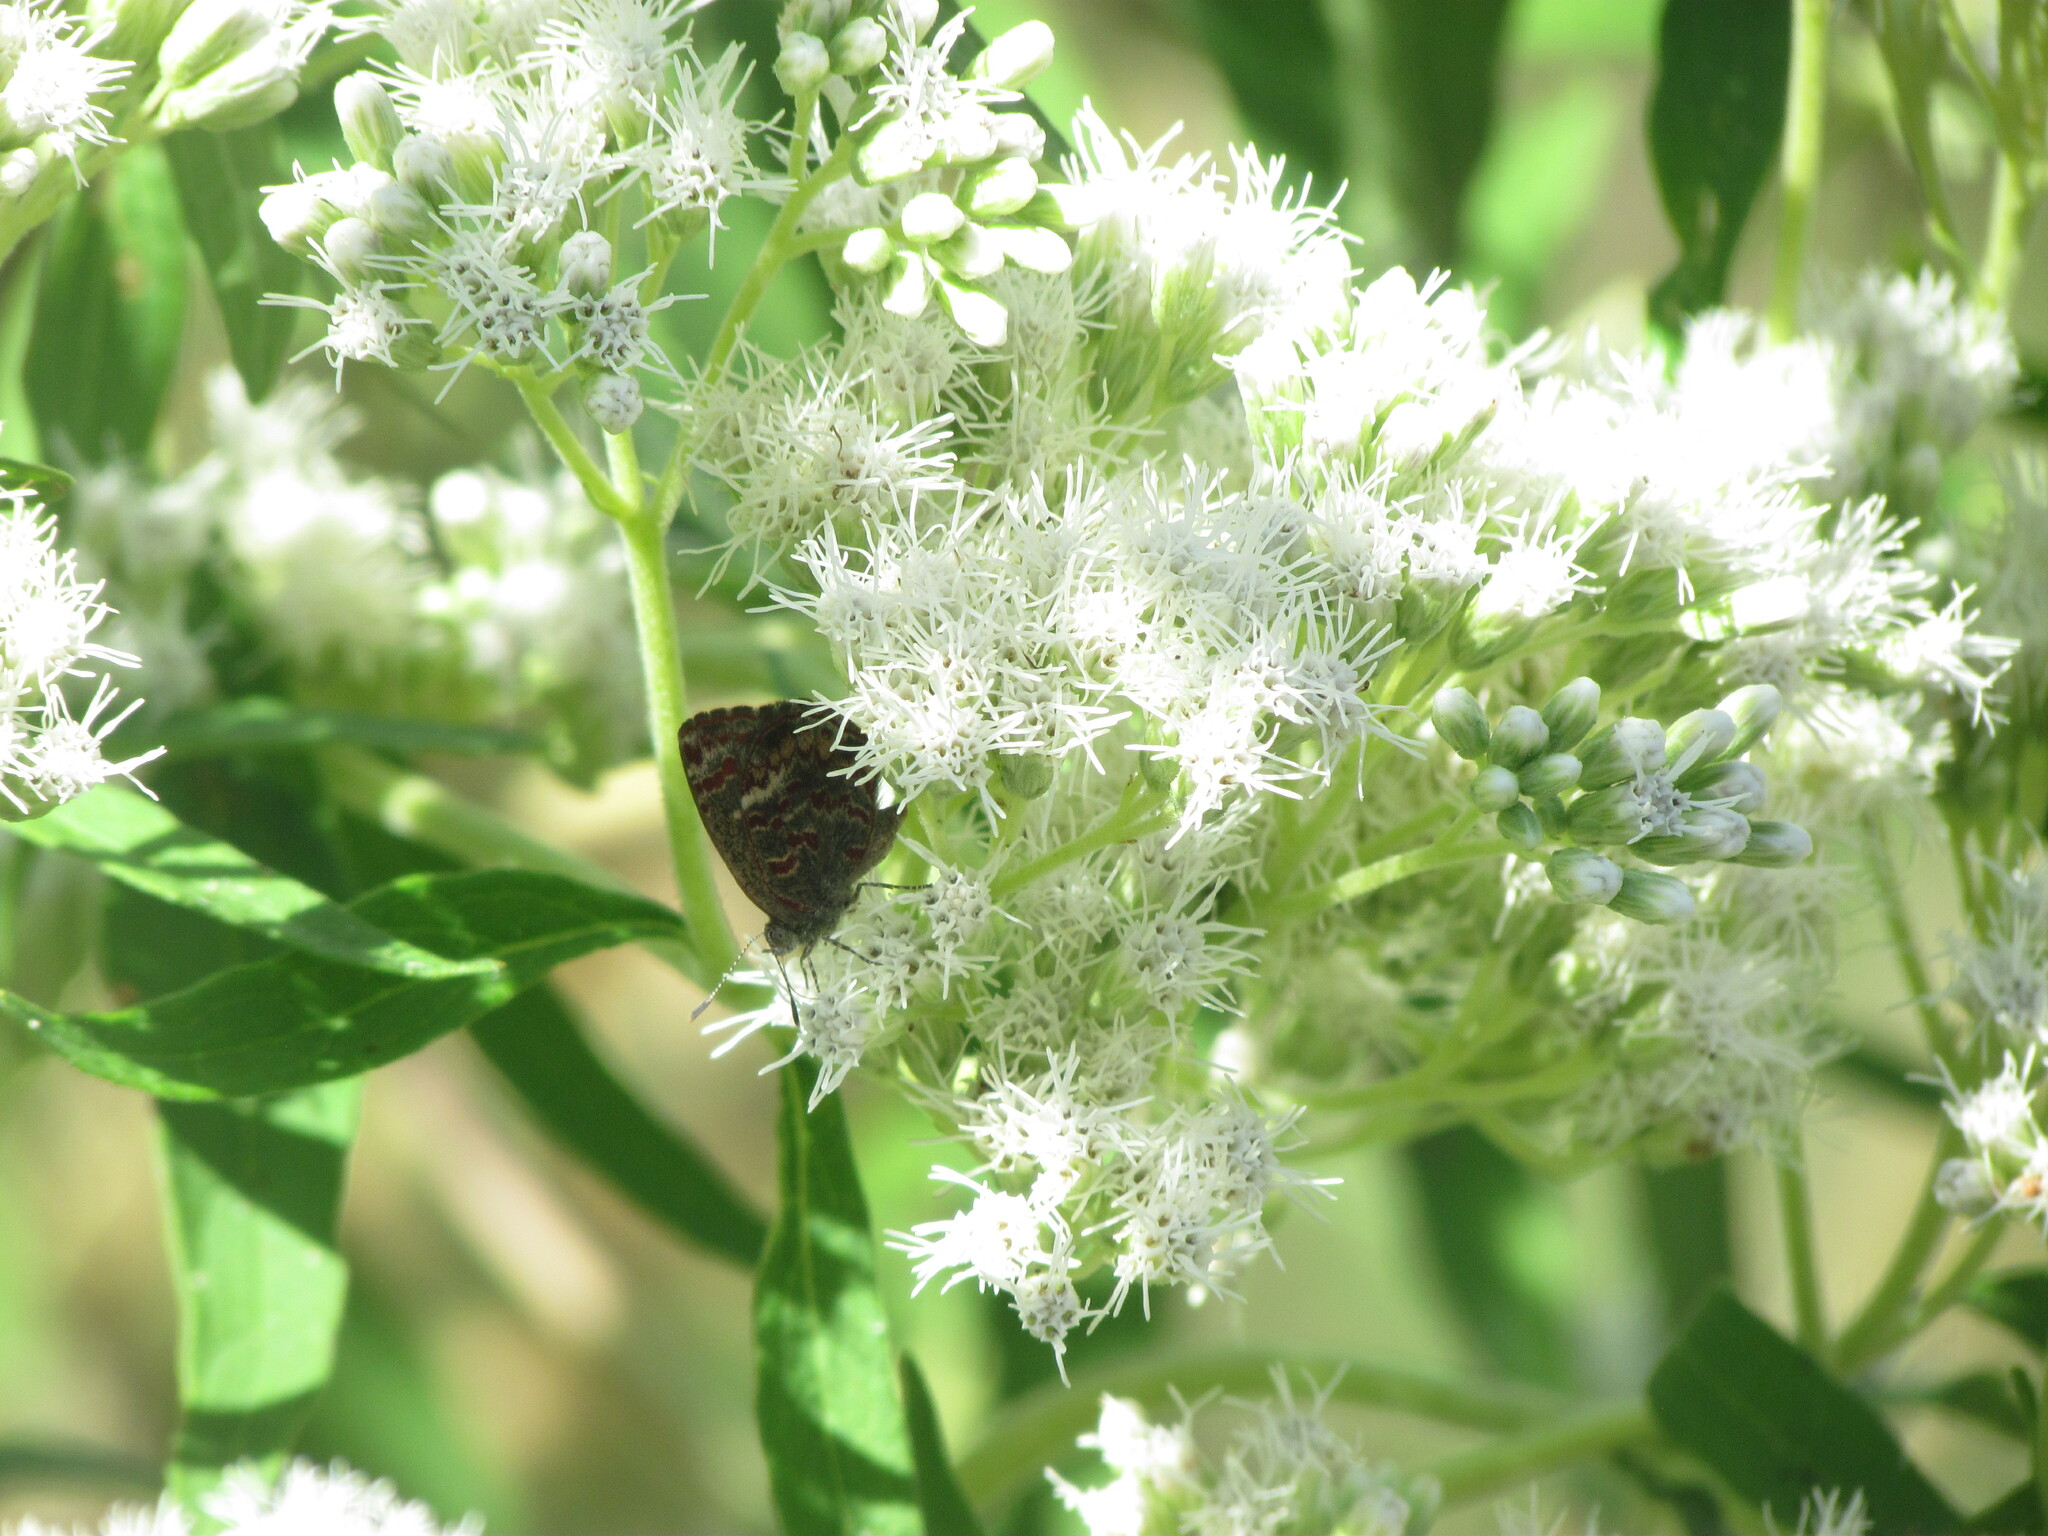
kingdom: Animalia
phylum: Arthropoda
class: Insecta
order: Lepidoptera
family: Lycaenidae
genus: Ministrymon
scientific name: Ministrymon
